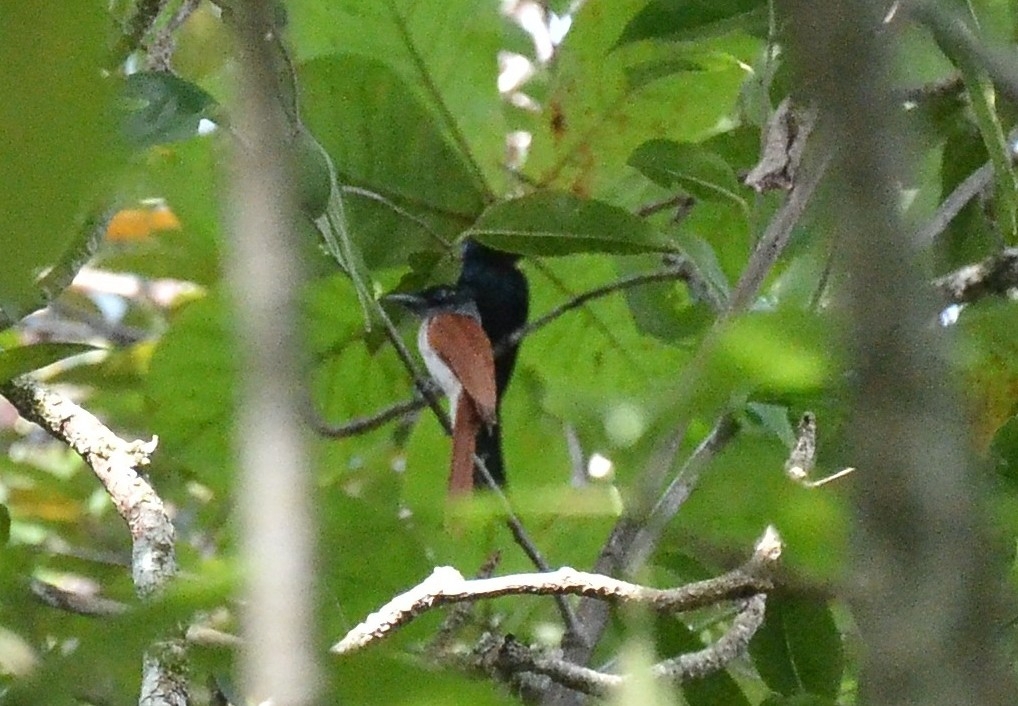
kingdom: Animalia
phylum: Chordata
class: Aves
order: Passeriformes
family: Monarchidae
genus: Terpsiphone
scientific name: Terpsiphone paradisi
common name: Indian paradise flycatcher
